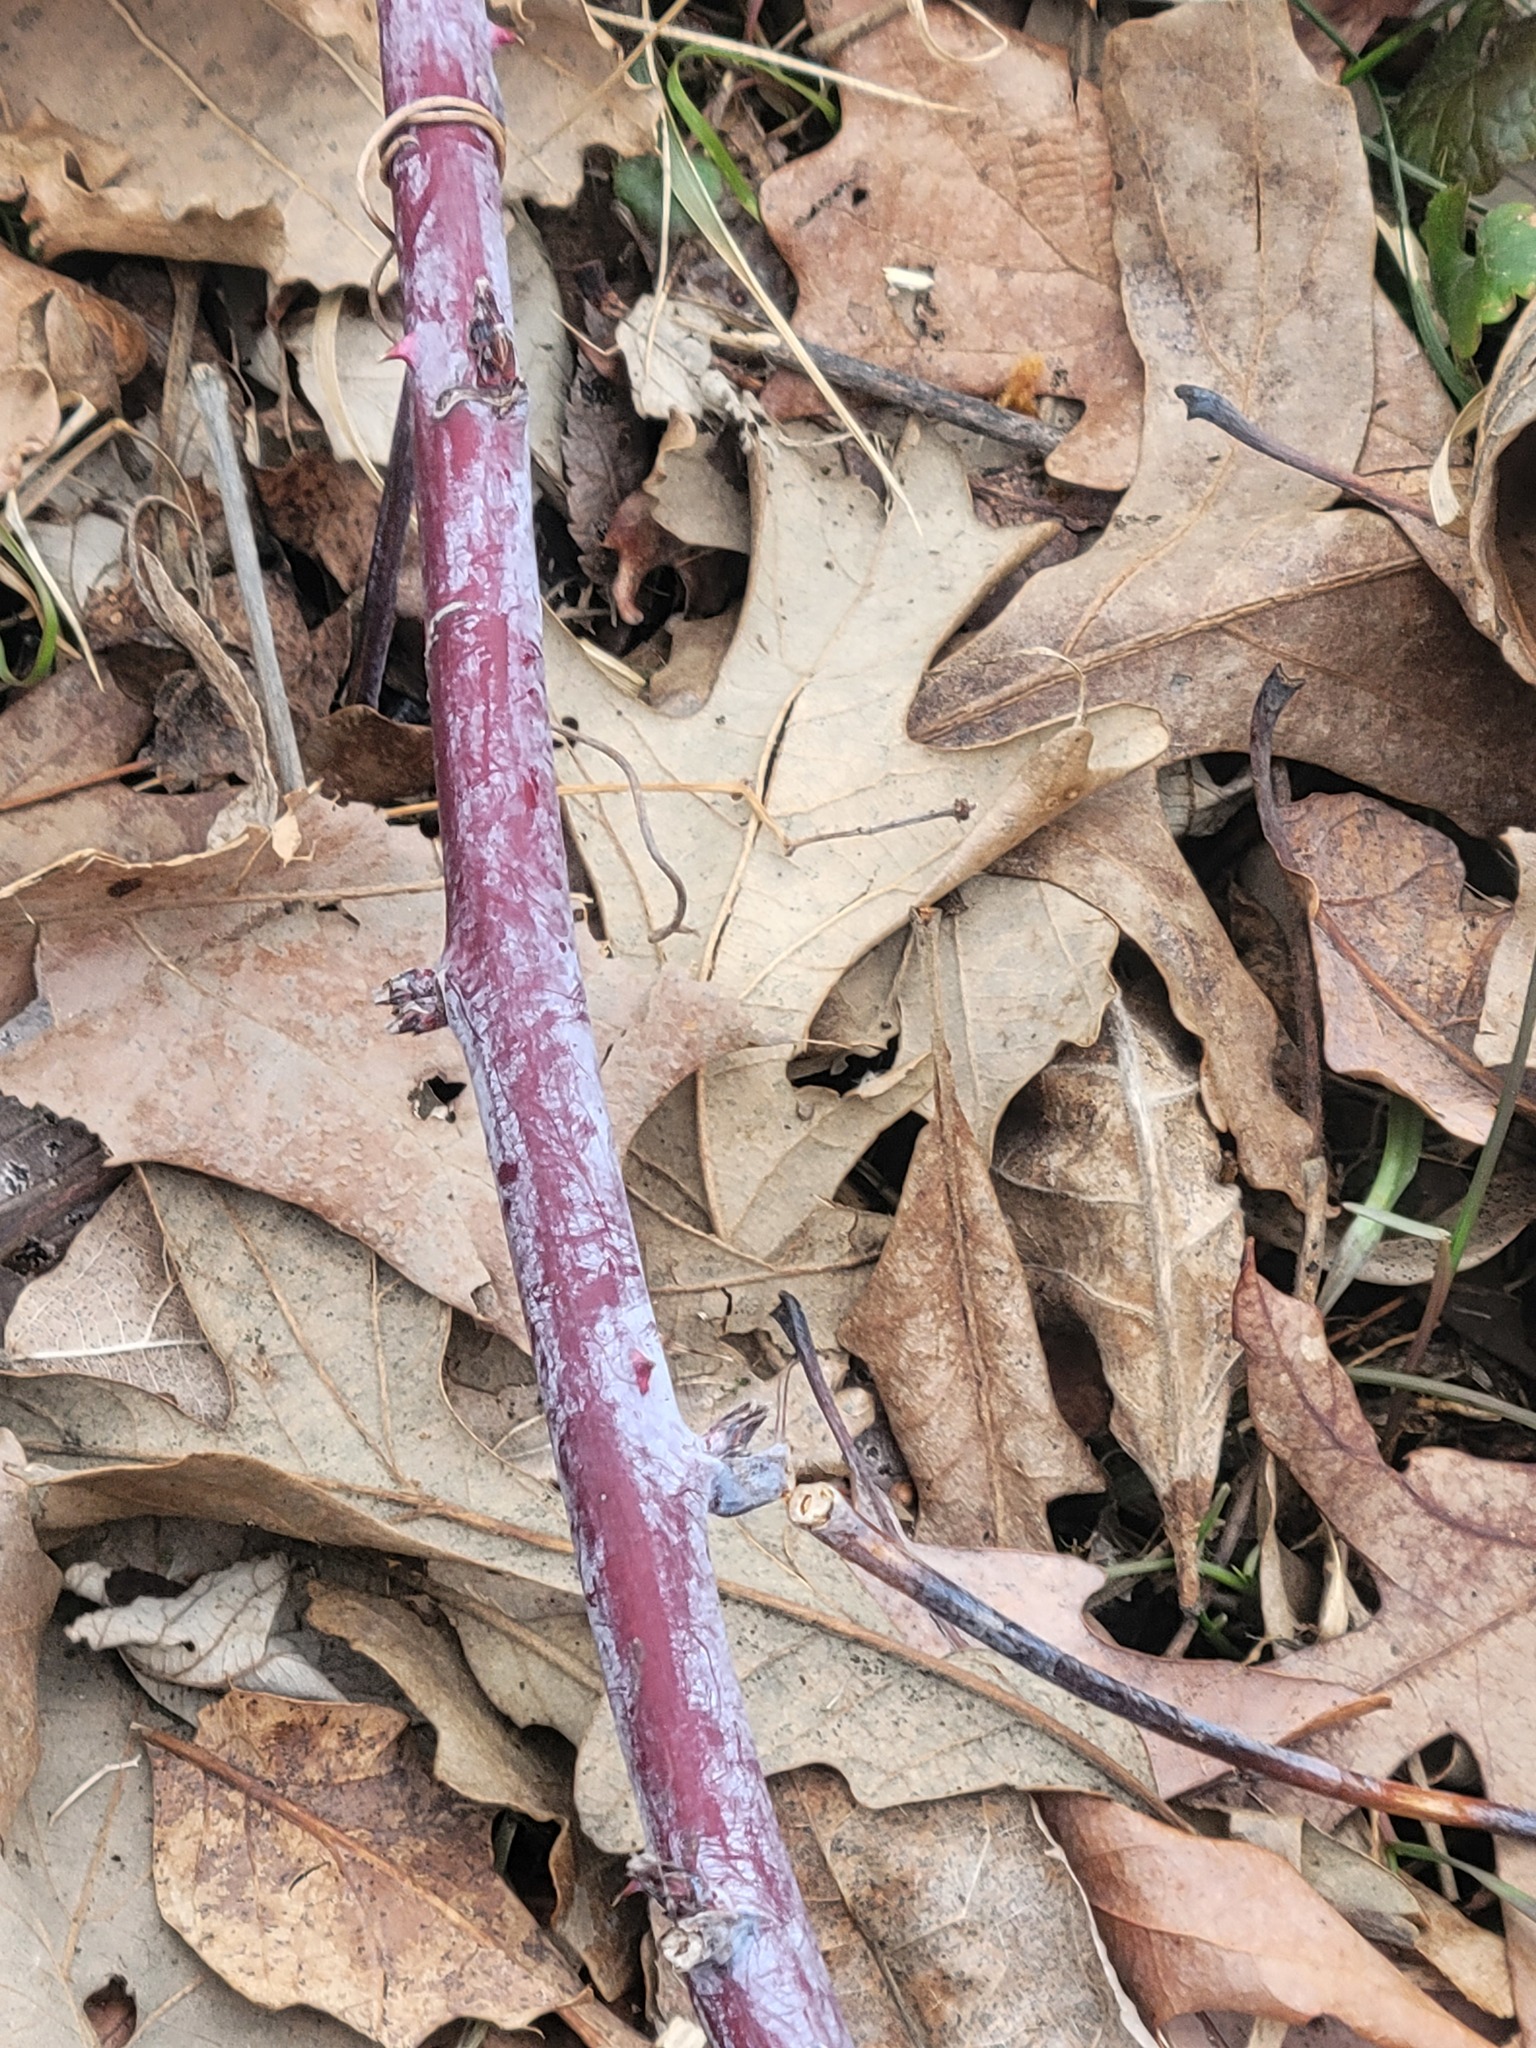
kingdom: Plantae
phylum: Tracheophyta
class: Magnoliopsida
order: Rosales
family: Rosaceae
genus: Rubus
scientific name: Rubus occidentalis
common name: Black raspberry
